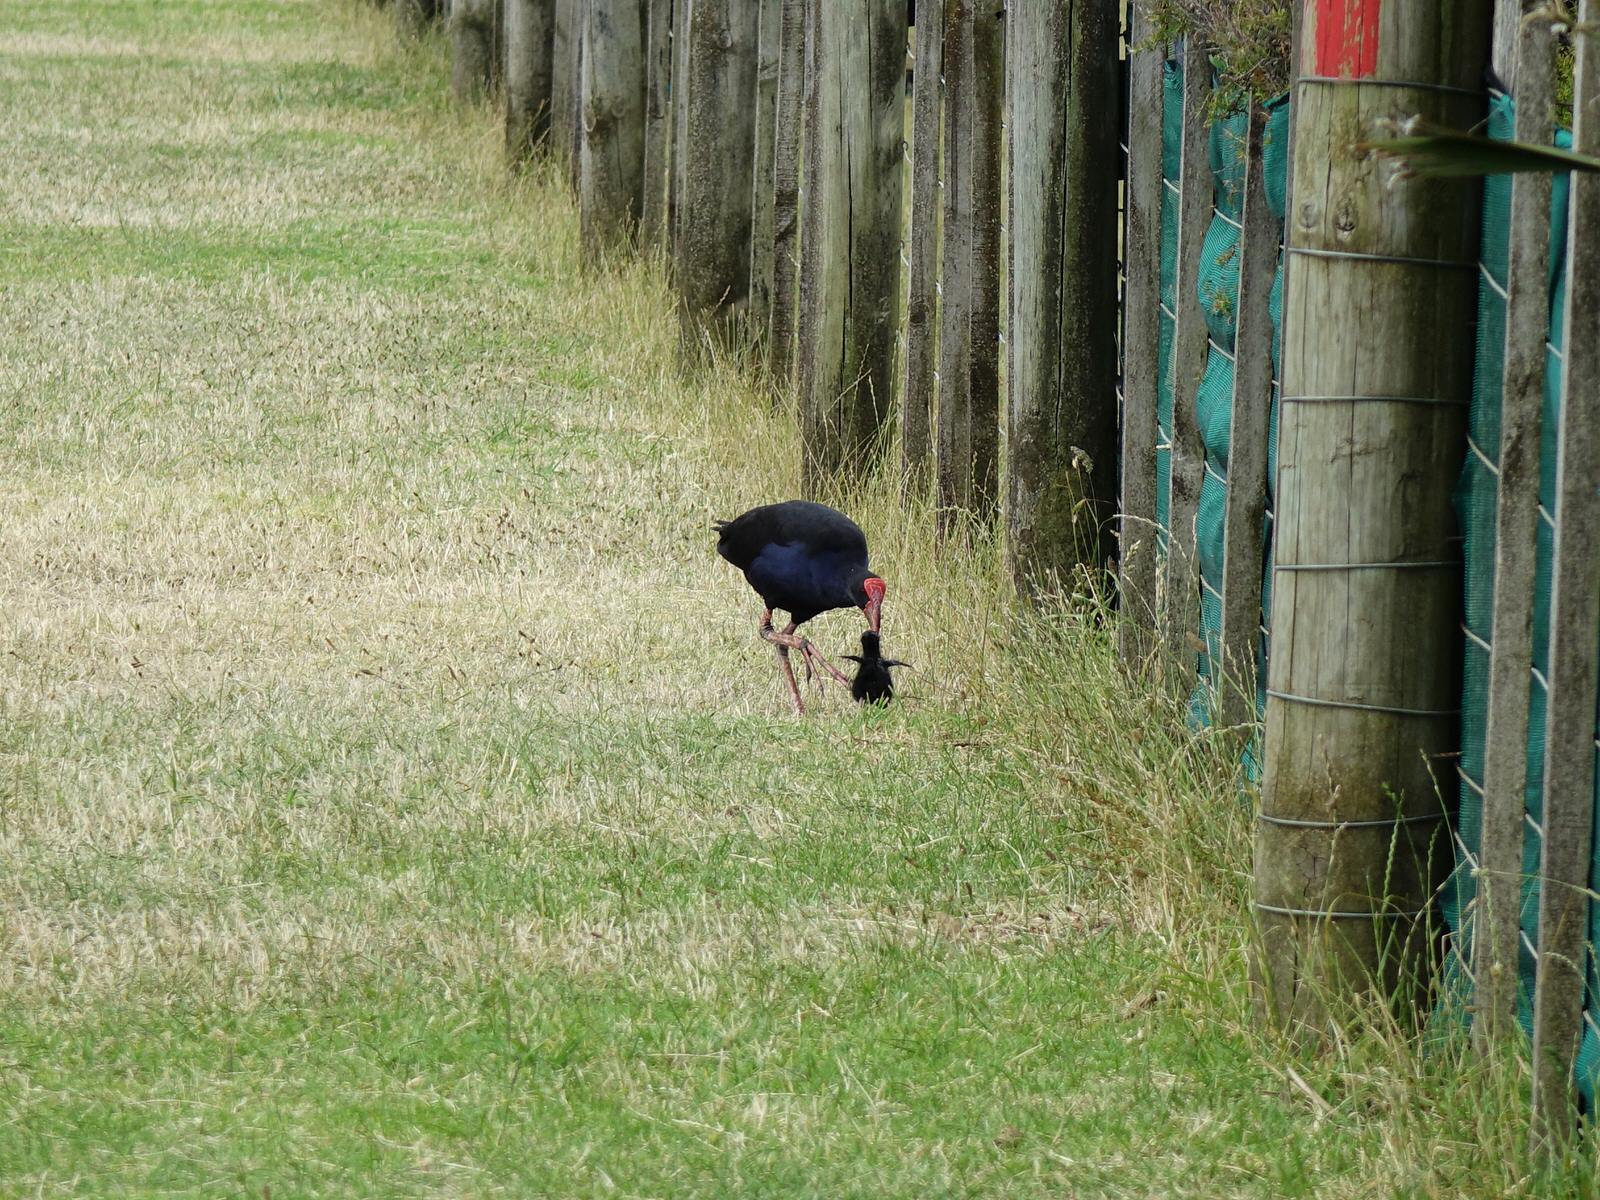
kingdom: Animalia
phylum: Chordata
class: Aves
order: Gruiformes
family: Rallidae
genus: Porphyrio
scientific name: Porphyrio melanotus
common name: Australasian swamphen
